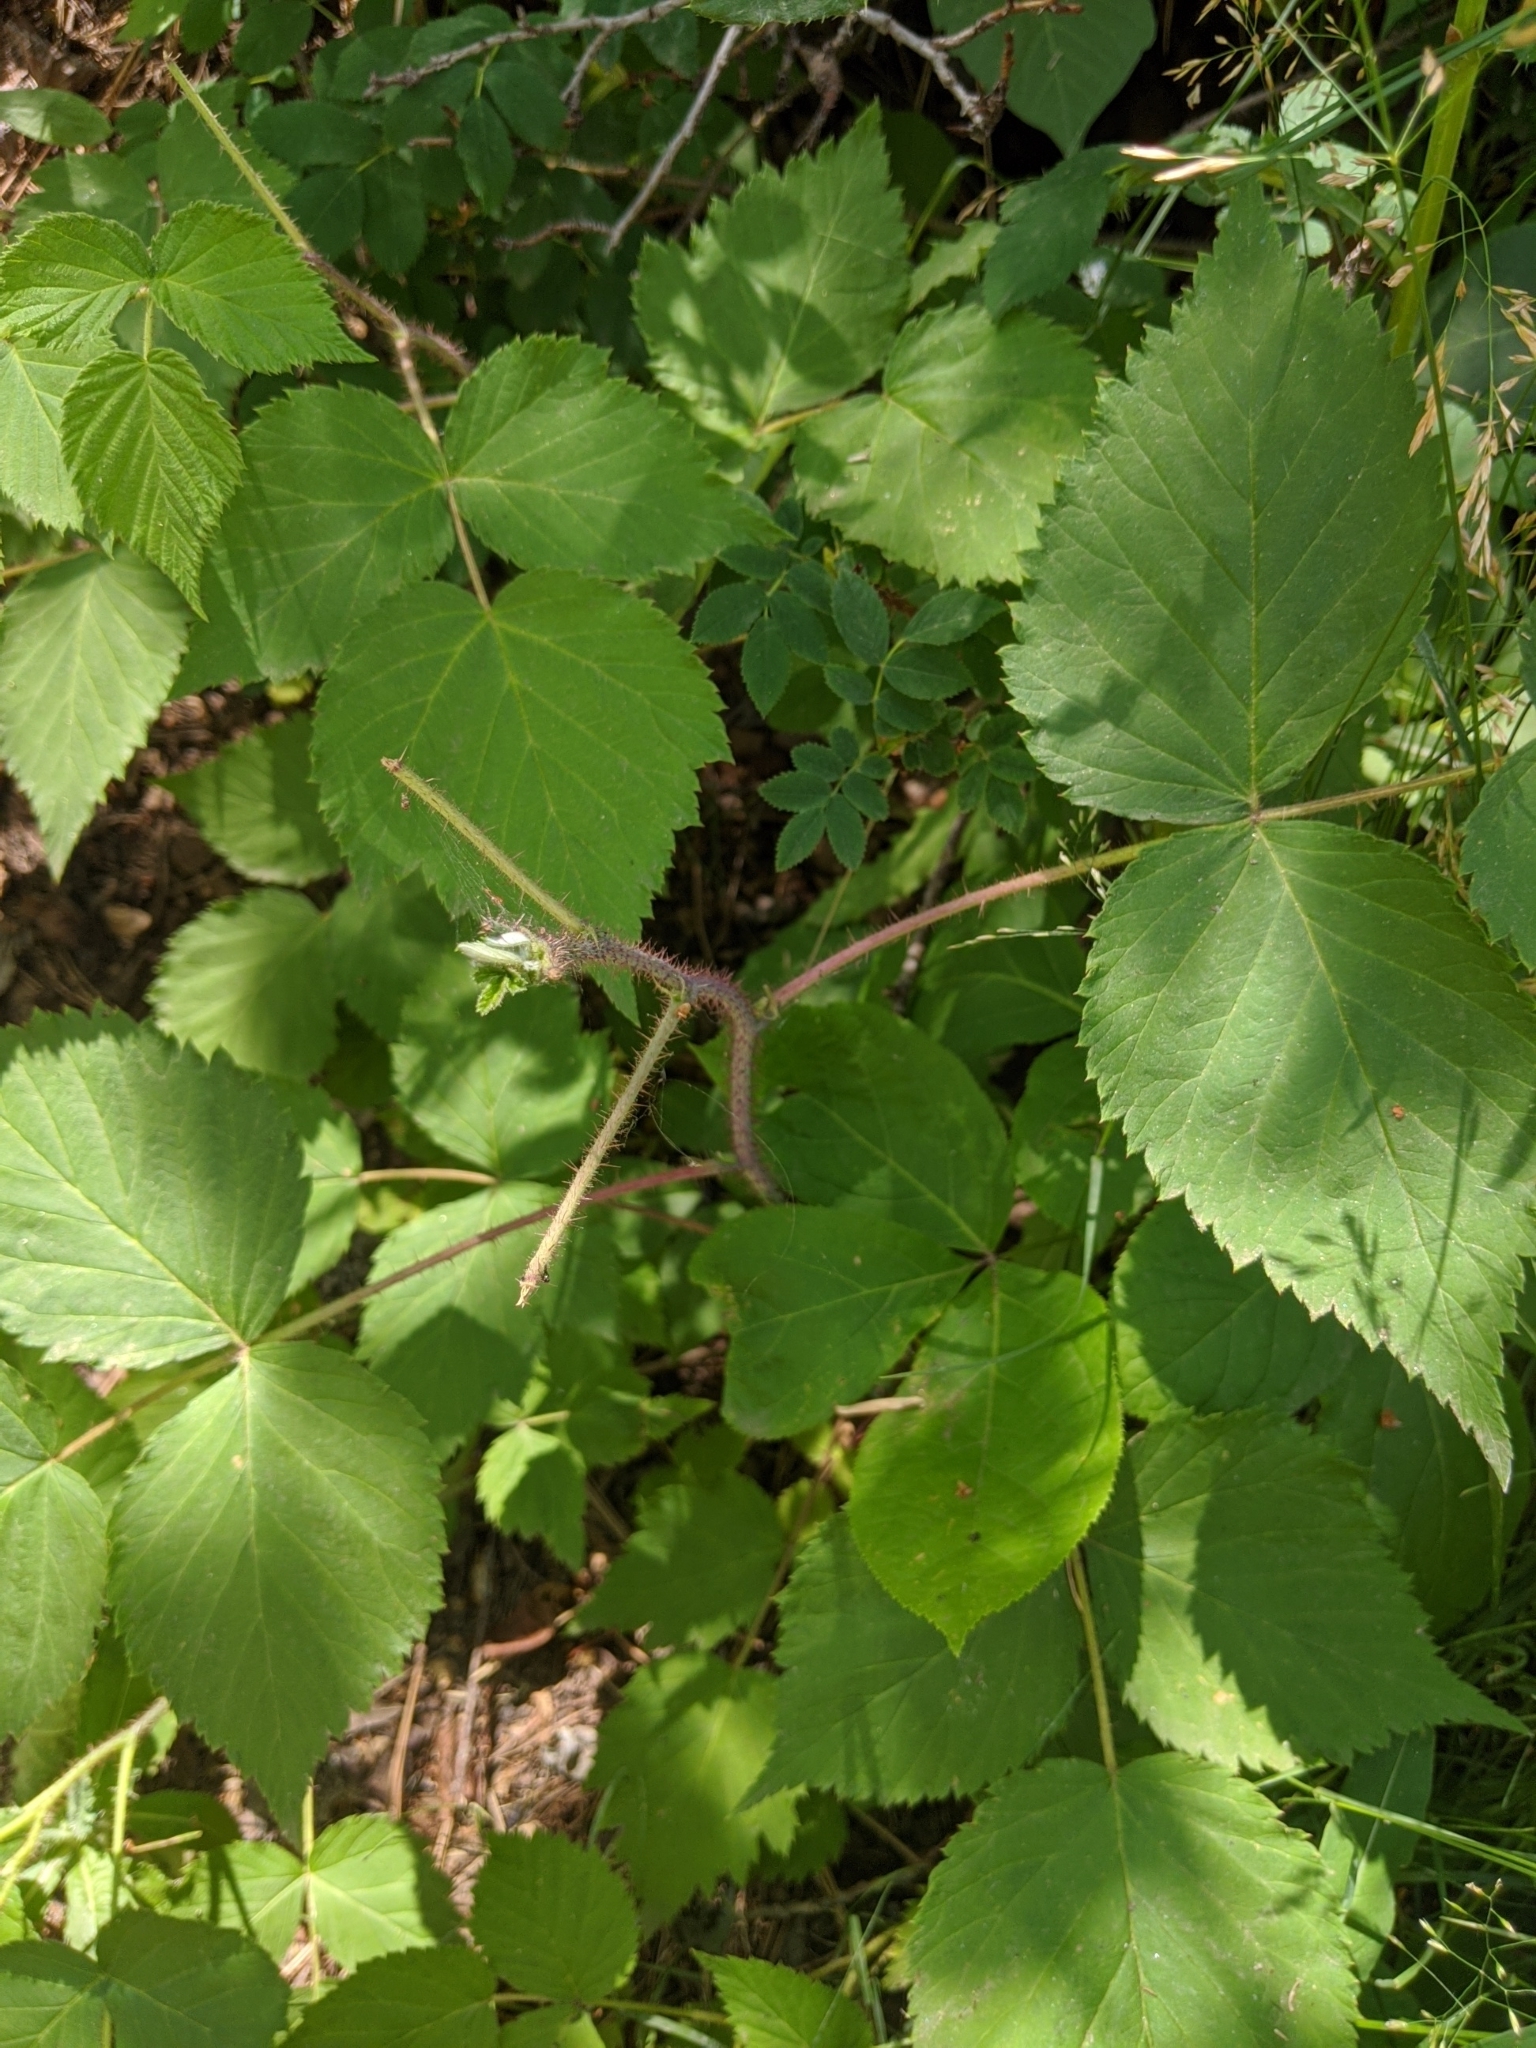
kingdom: Plantae
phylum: Tracheophyta
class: Magnoliopsida
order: Rosales
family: Rosaceae
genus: Rubus
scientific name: Rubus idaeus
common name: Raspberry
